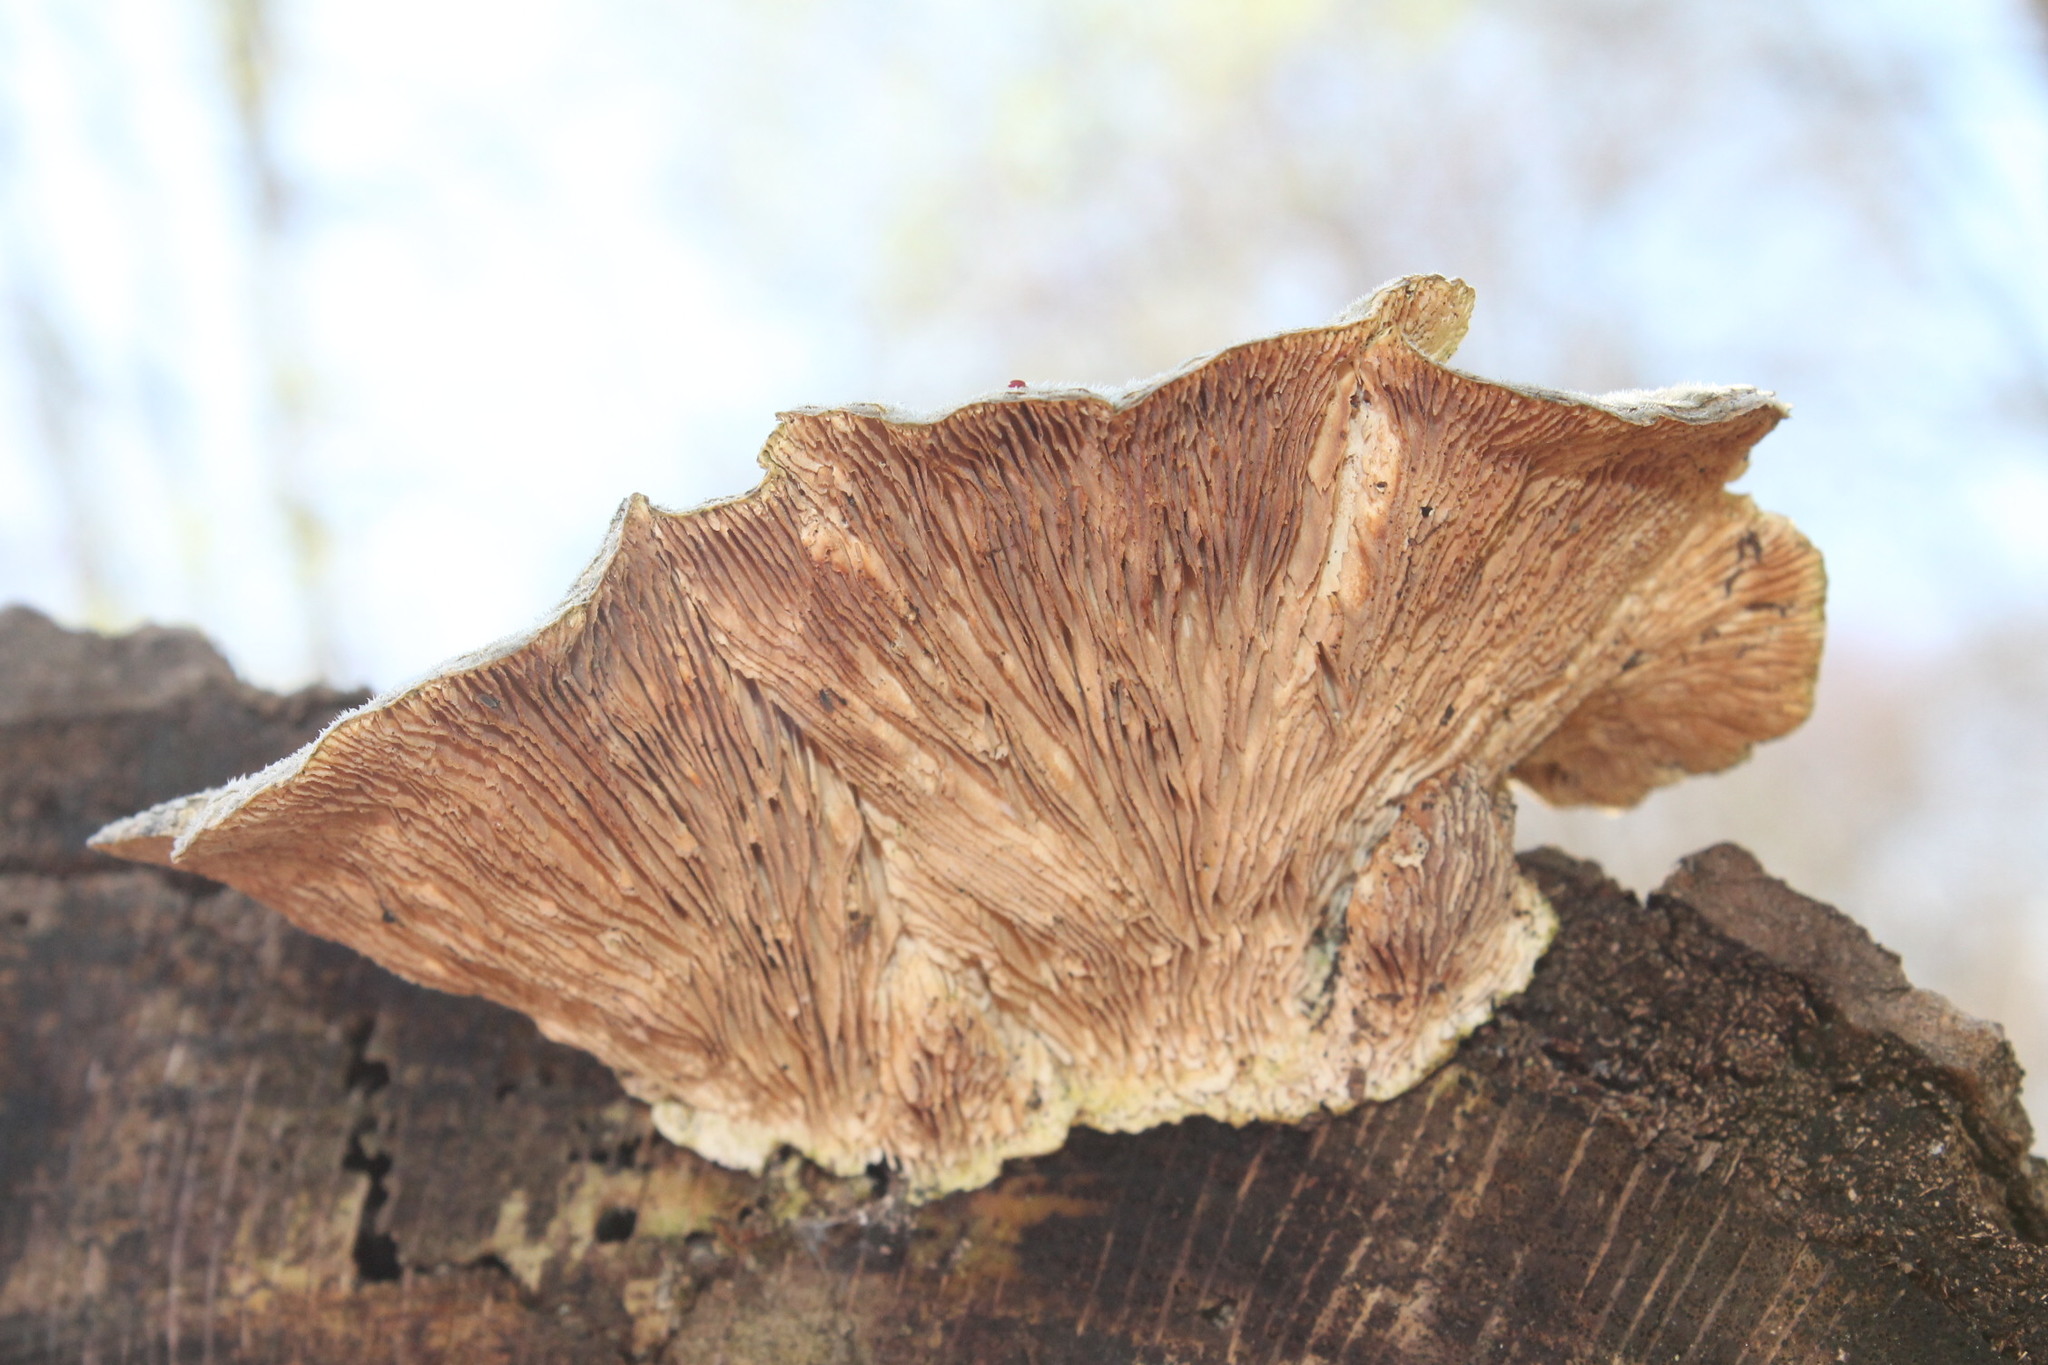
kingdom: Fungi
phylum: Basidiomycota
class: Agaricomycetes
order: Polyporales
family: Polyporaceae
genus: Lenzites
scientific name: Lenzites betulinus
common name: Birch mazegill
